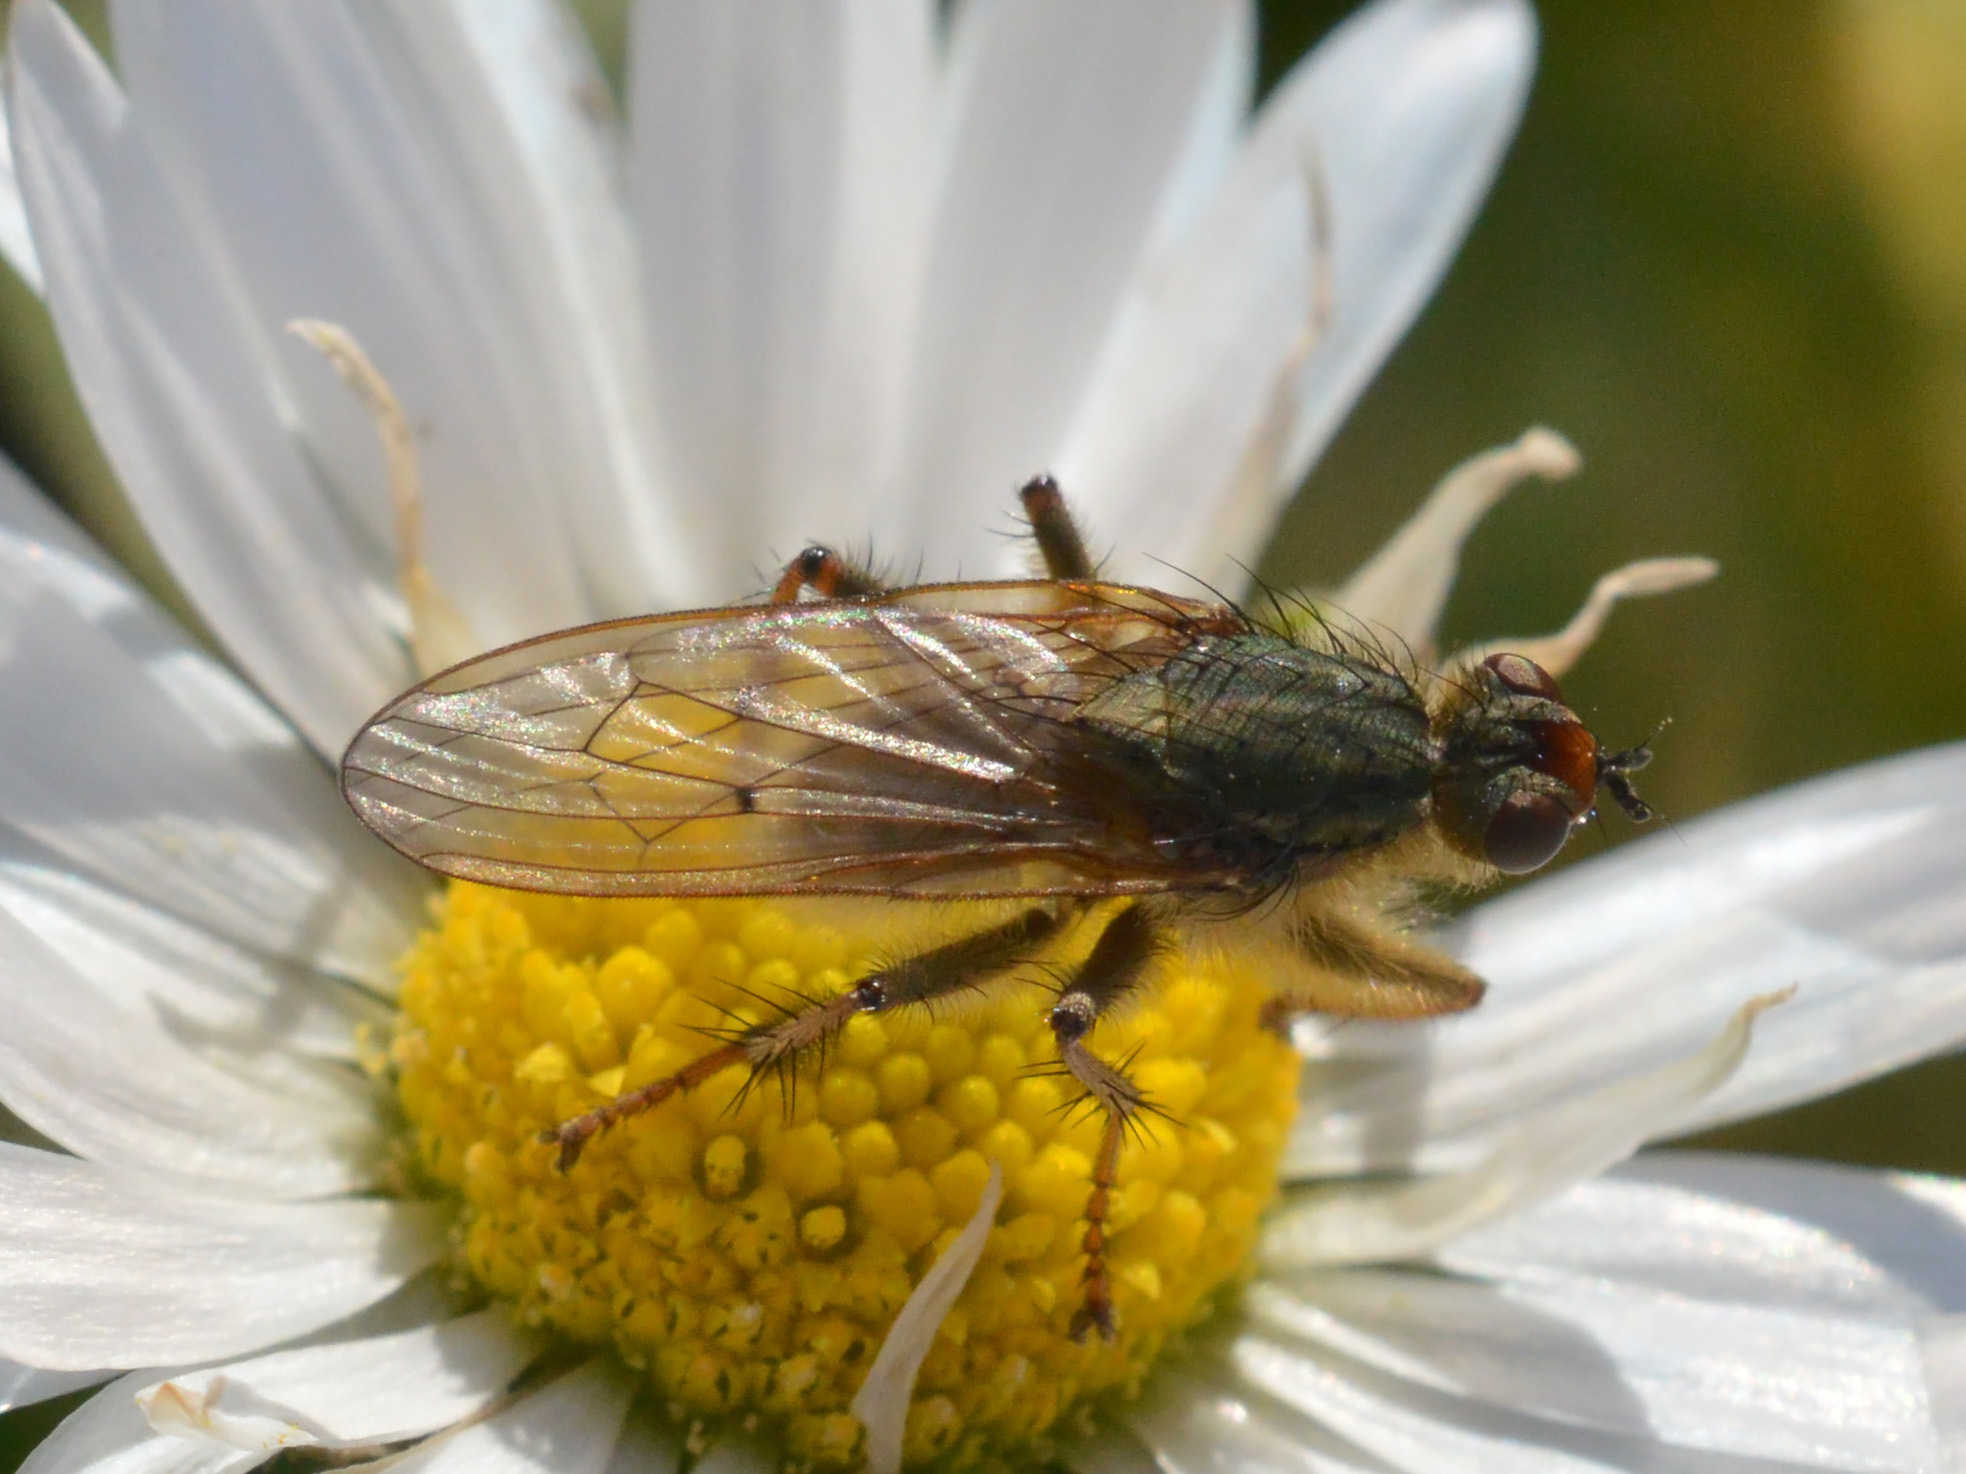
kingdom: Animalia
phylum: Arthropoda
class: Insecta
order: Diptera
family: Scathophagidae
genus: Scathophaga
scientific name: Scathophaga stercoraria
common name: Yellow dung fly
